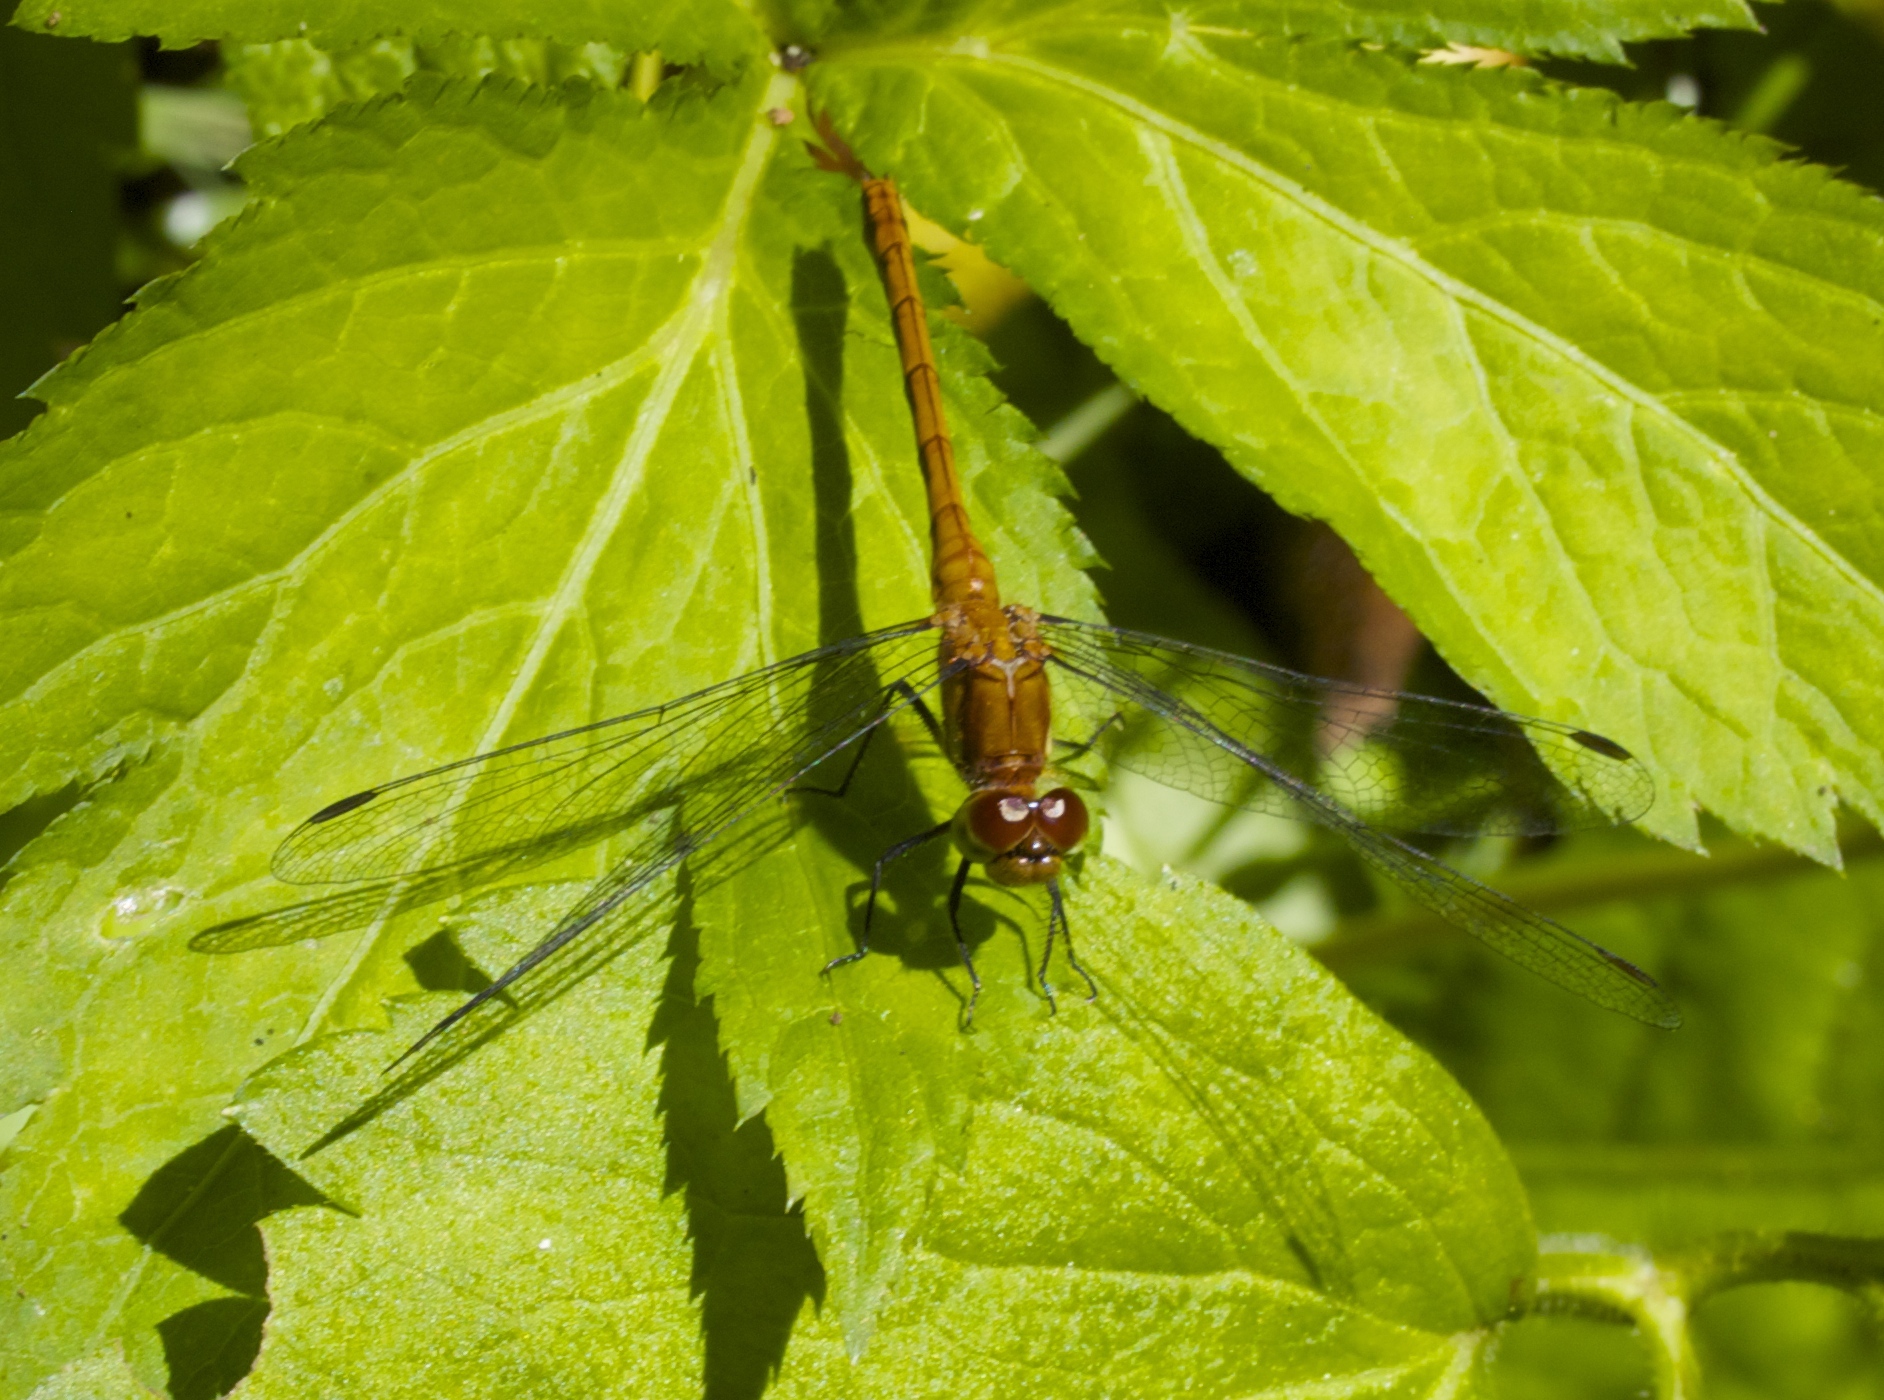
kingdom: Animalia
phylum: Arthropoda
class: Insecta
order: Odonata
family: Libellulidae
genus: Sympetrum
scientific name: Sympetrum
